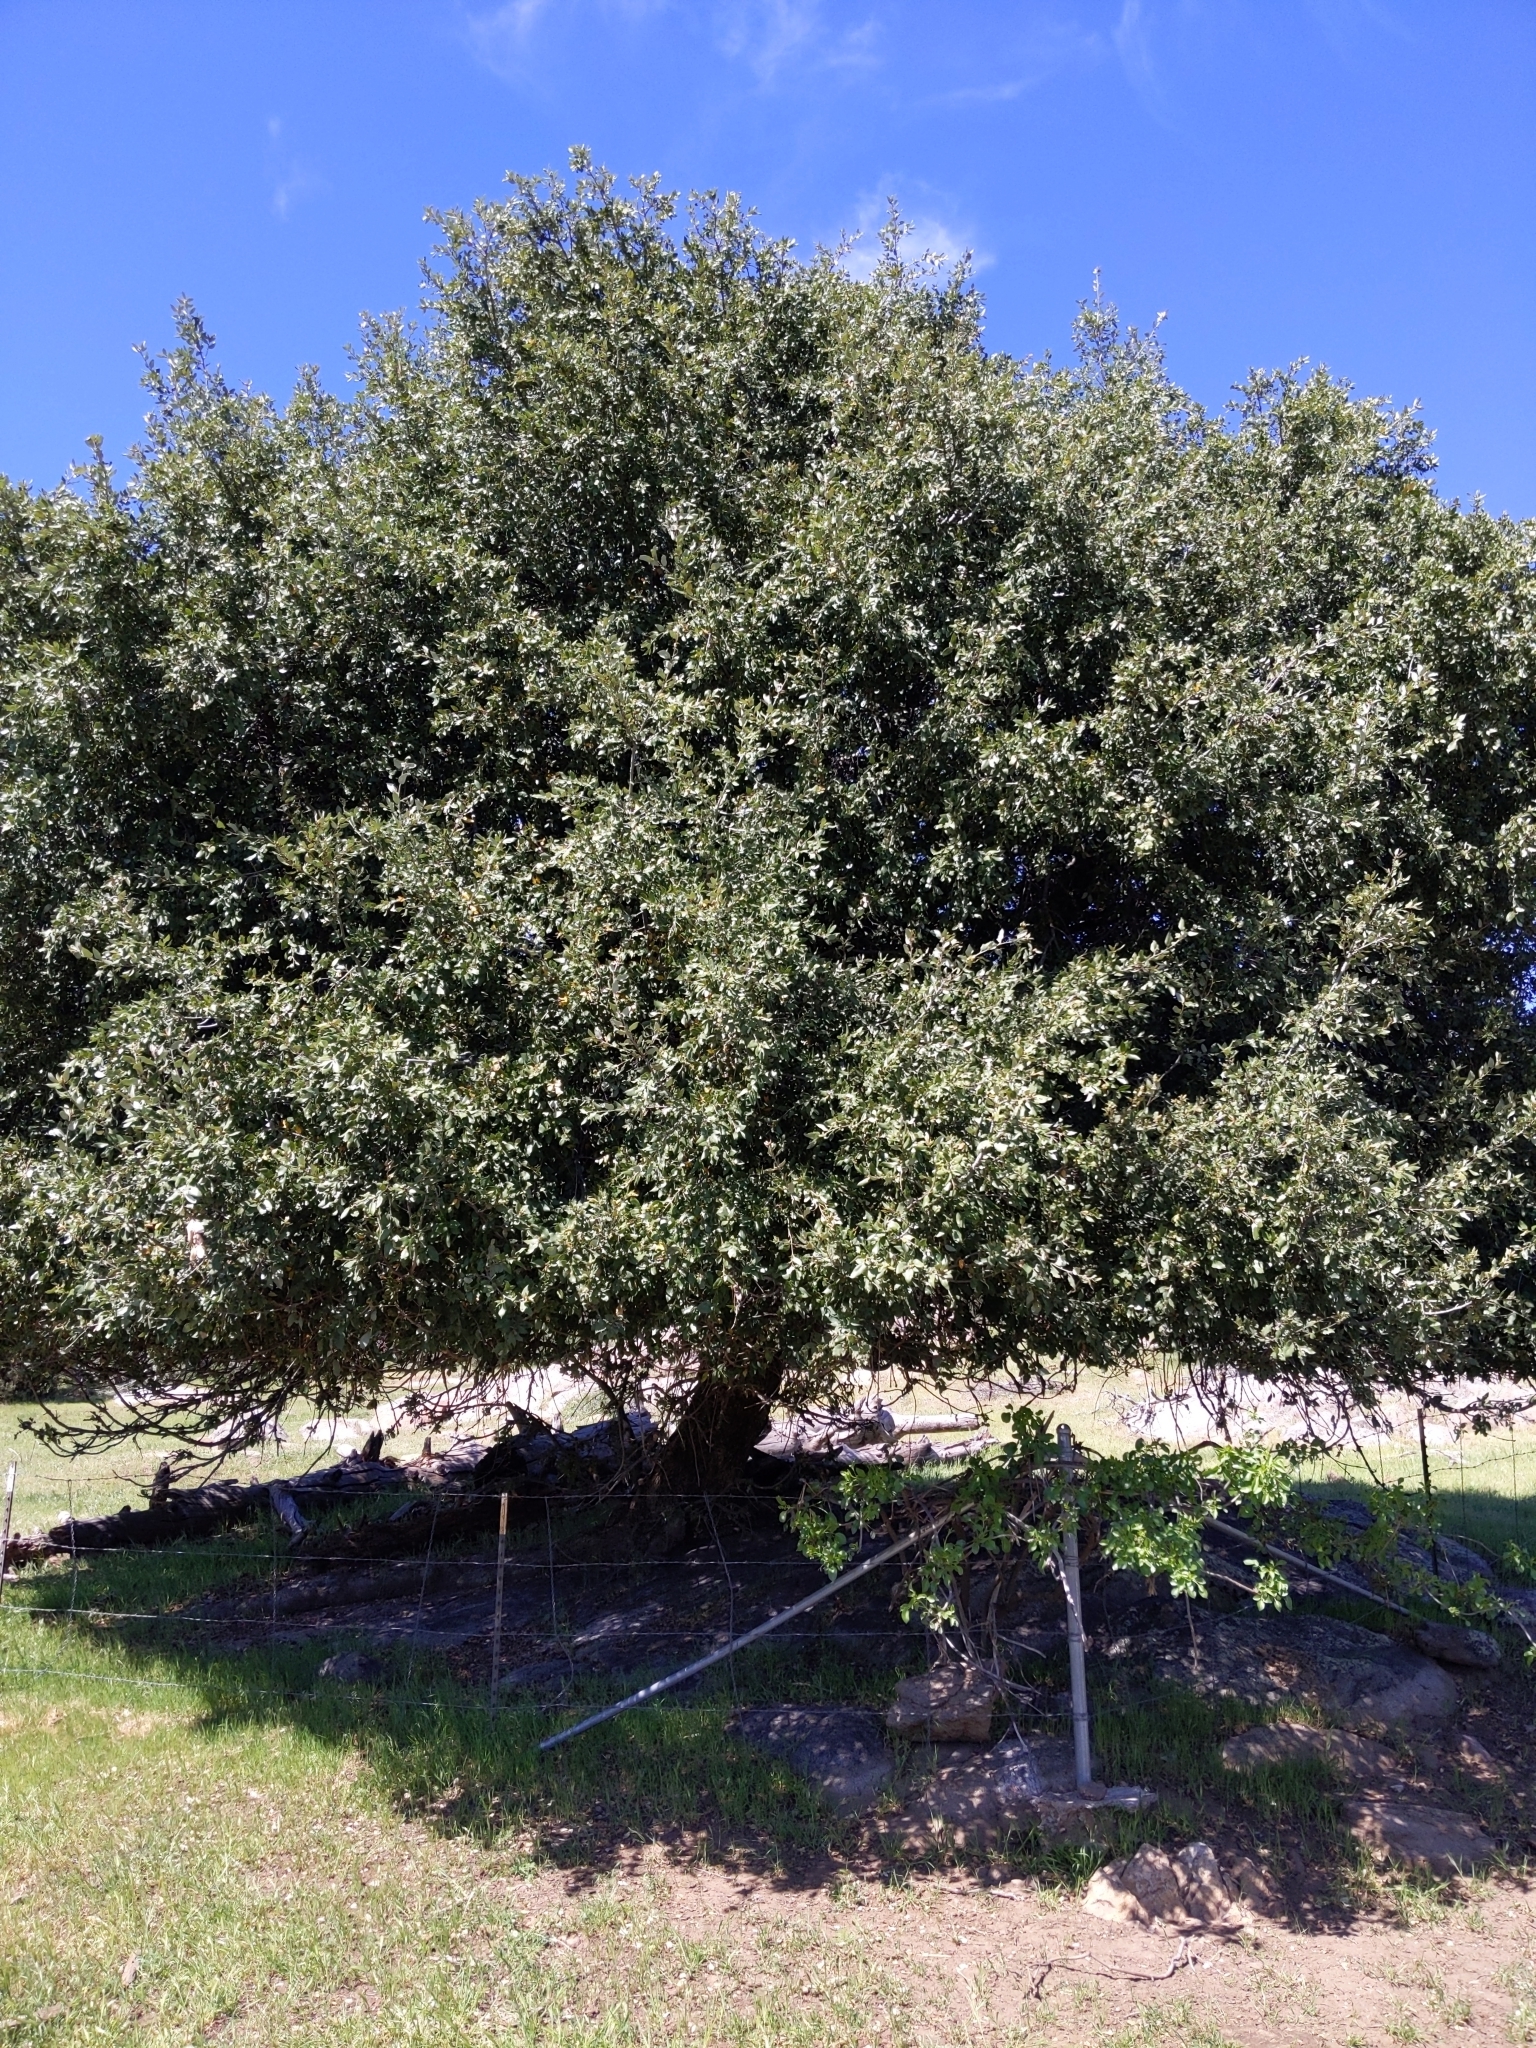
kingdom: Plantae
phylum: Tracheophyta
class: Magnoliopsida
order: Dipsacales
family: Viburnaceae
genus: Sambucus
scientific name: Sambucus cerulea
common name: Blue elder
